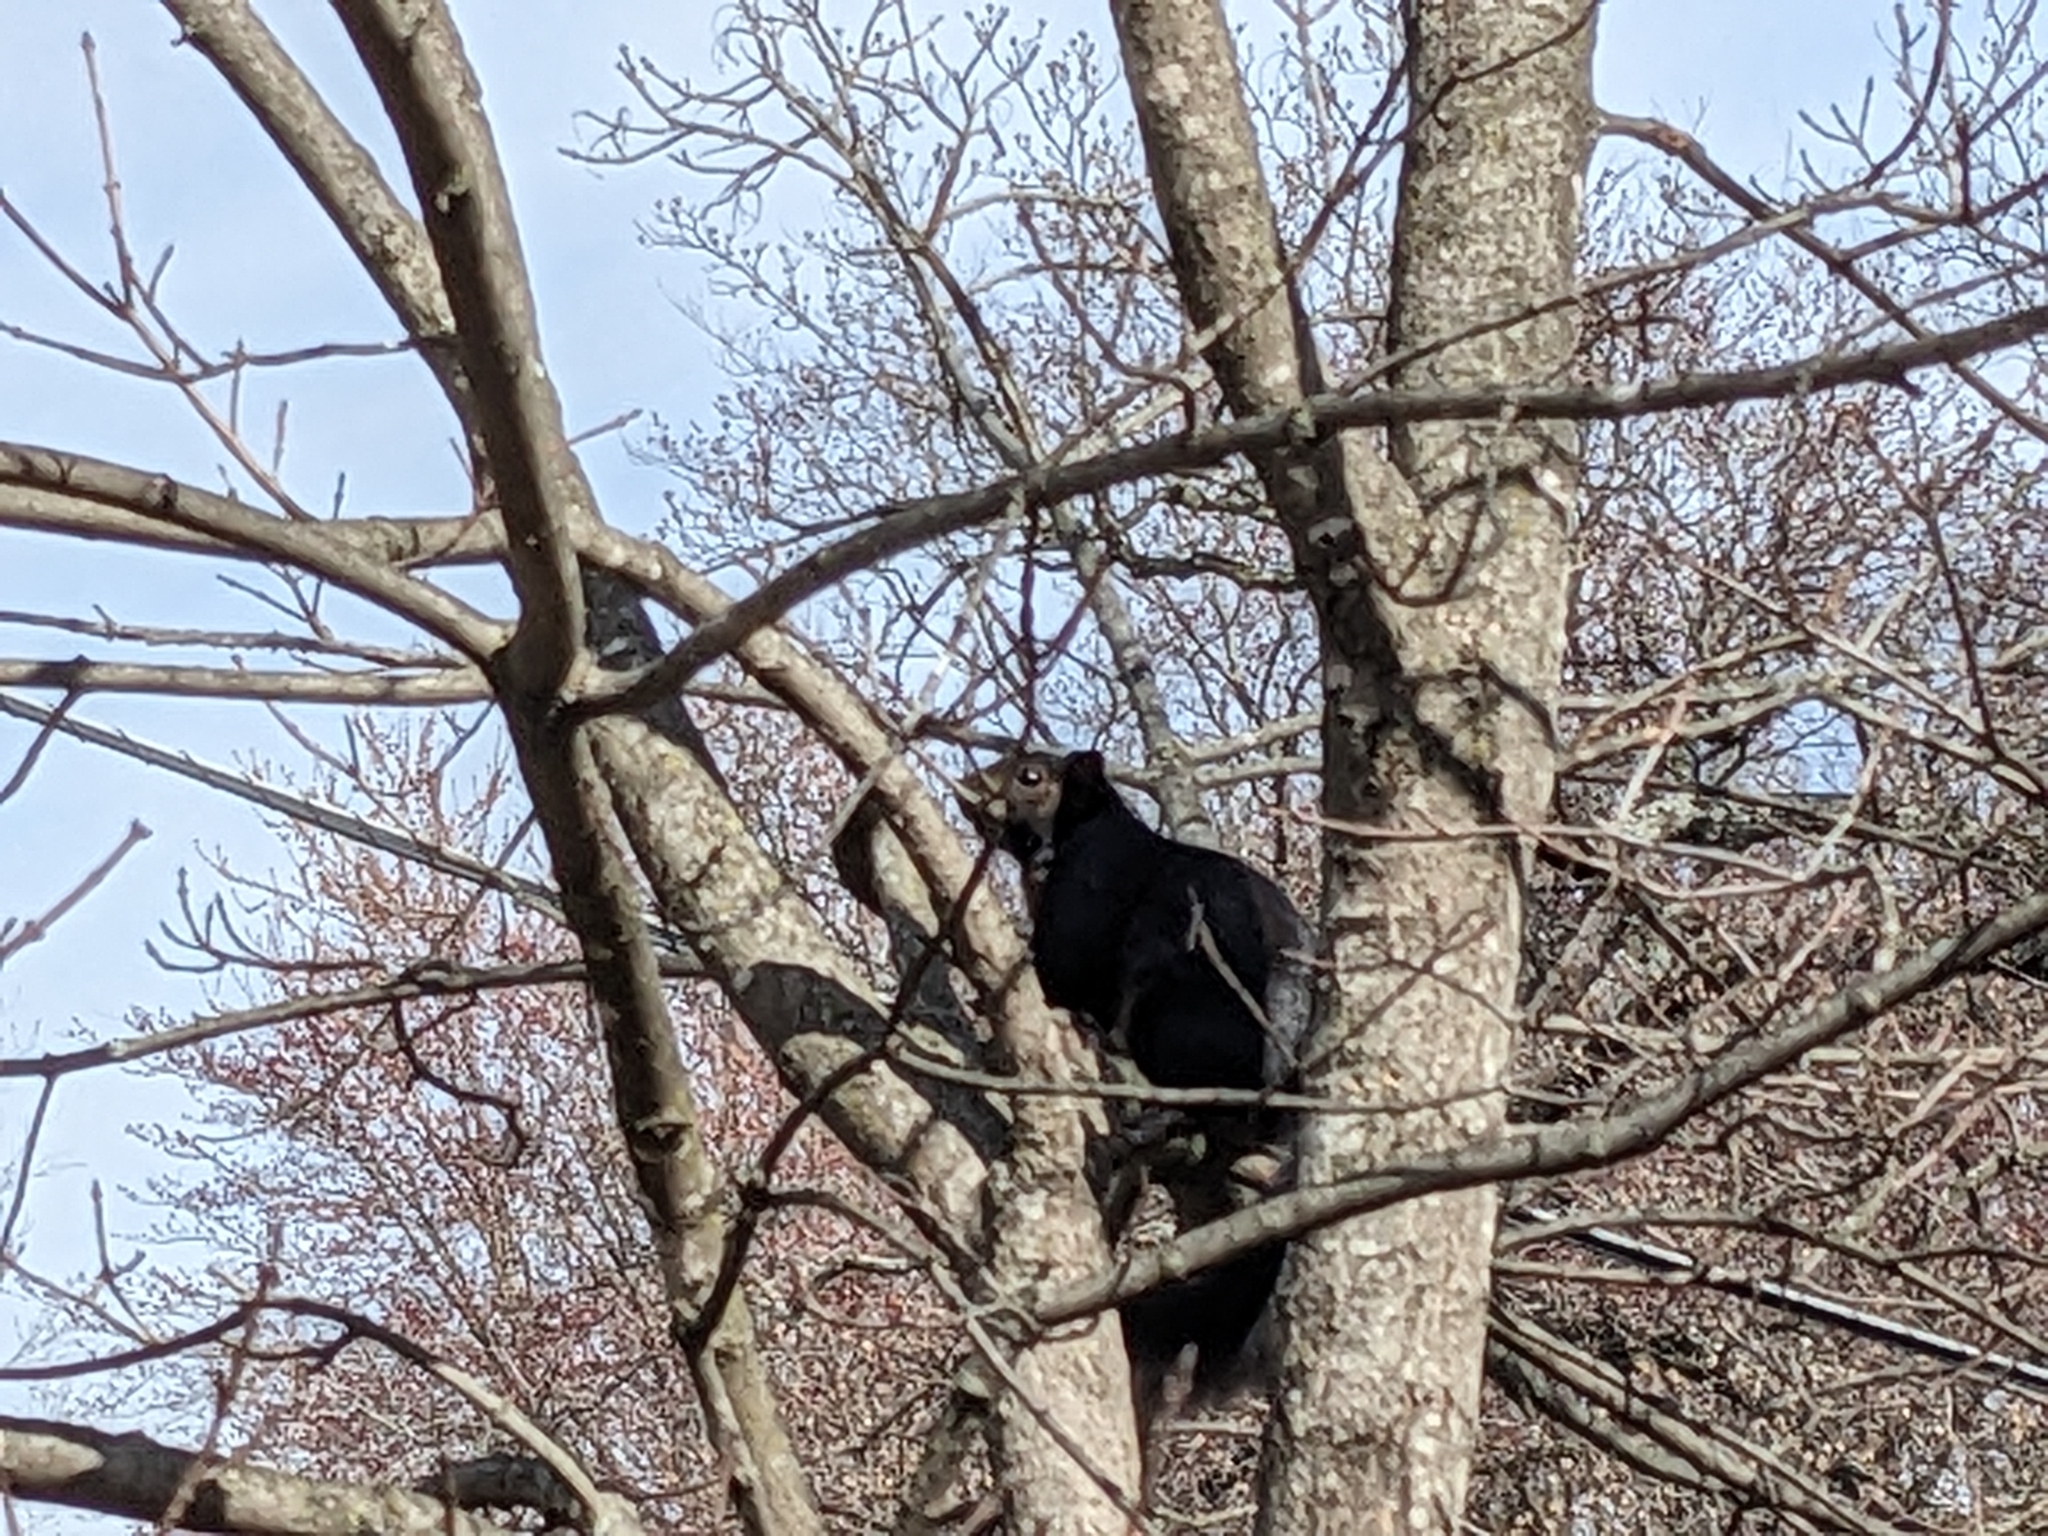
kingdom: Animalia
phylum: Chordata
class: Mammalia
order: Rodentia
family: Sciuridae
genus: Sciurus
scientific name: Sciurus carolinensis
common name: Eastern gray squirrel
